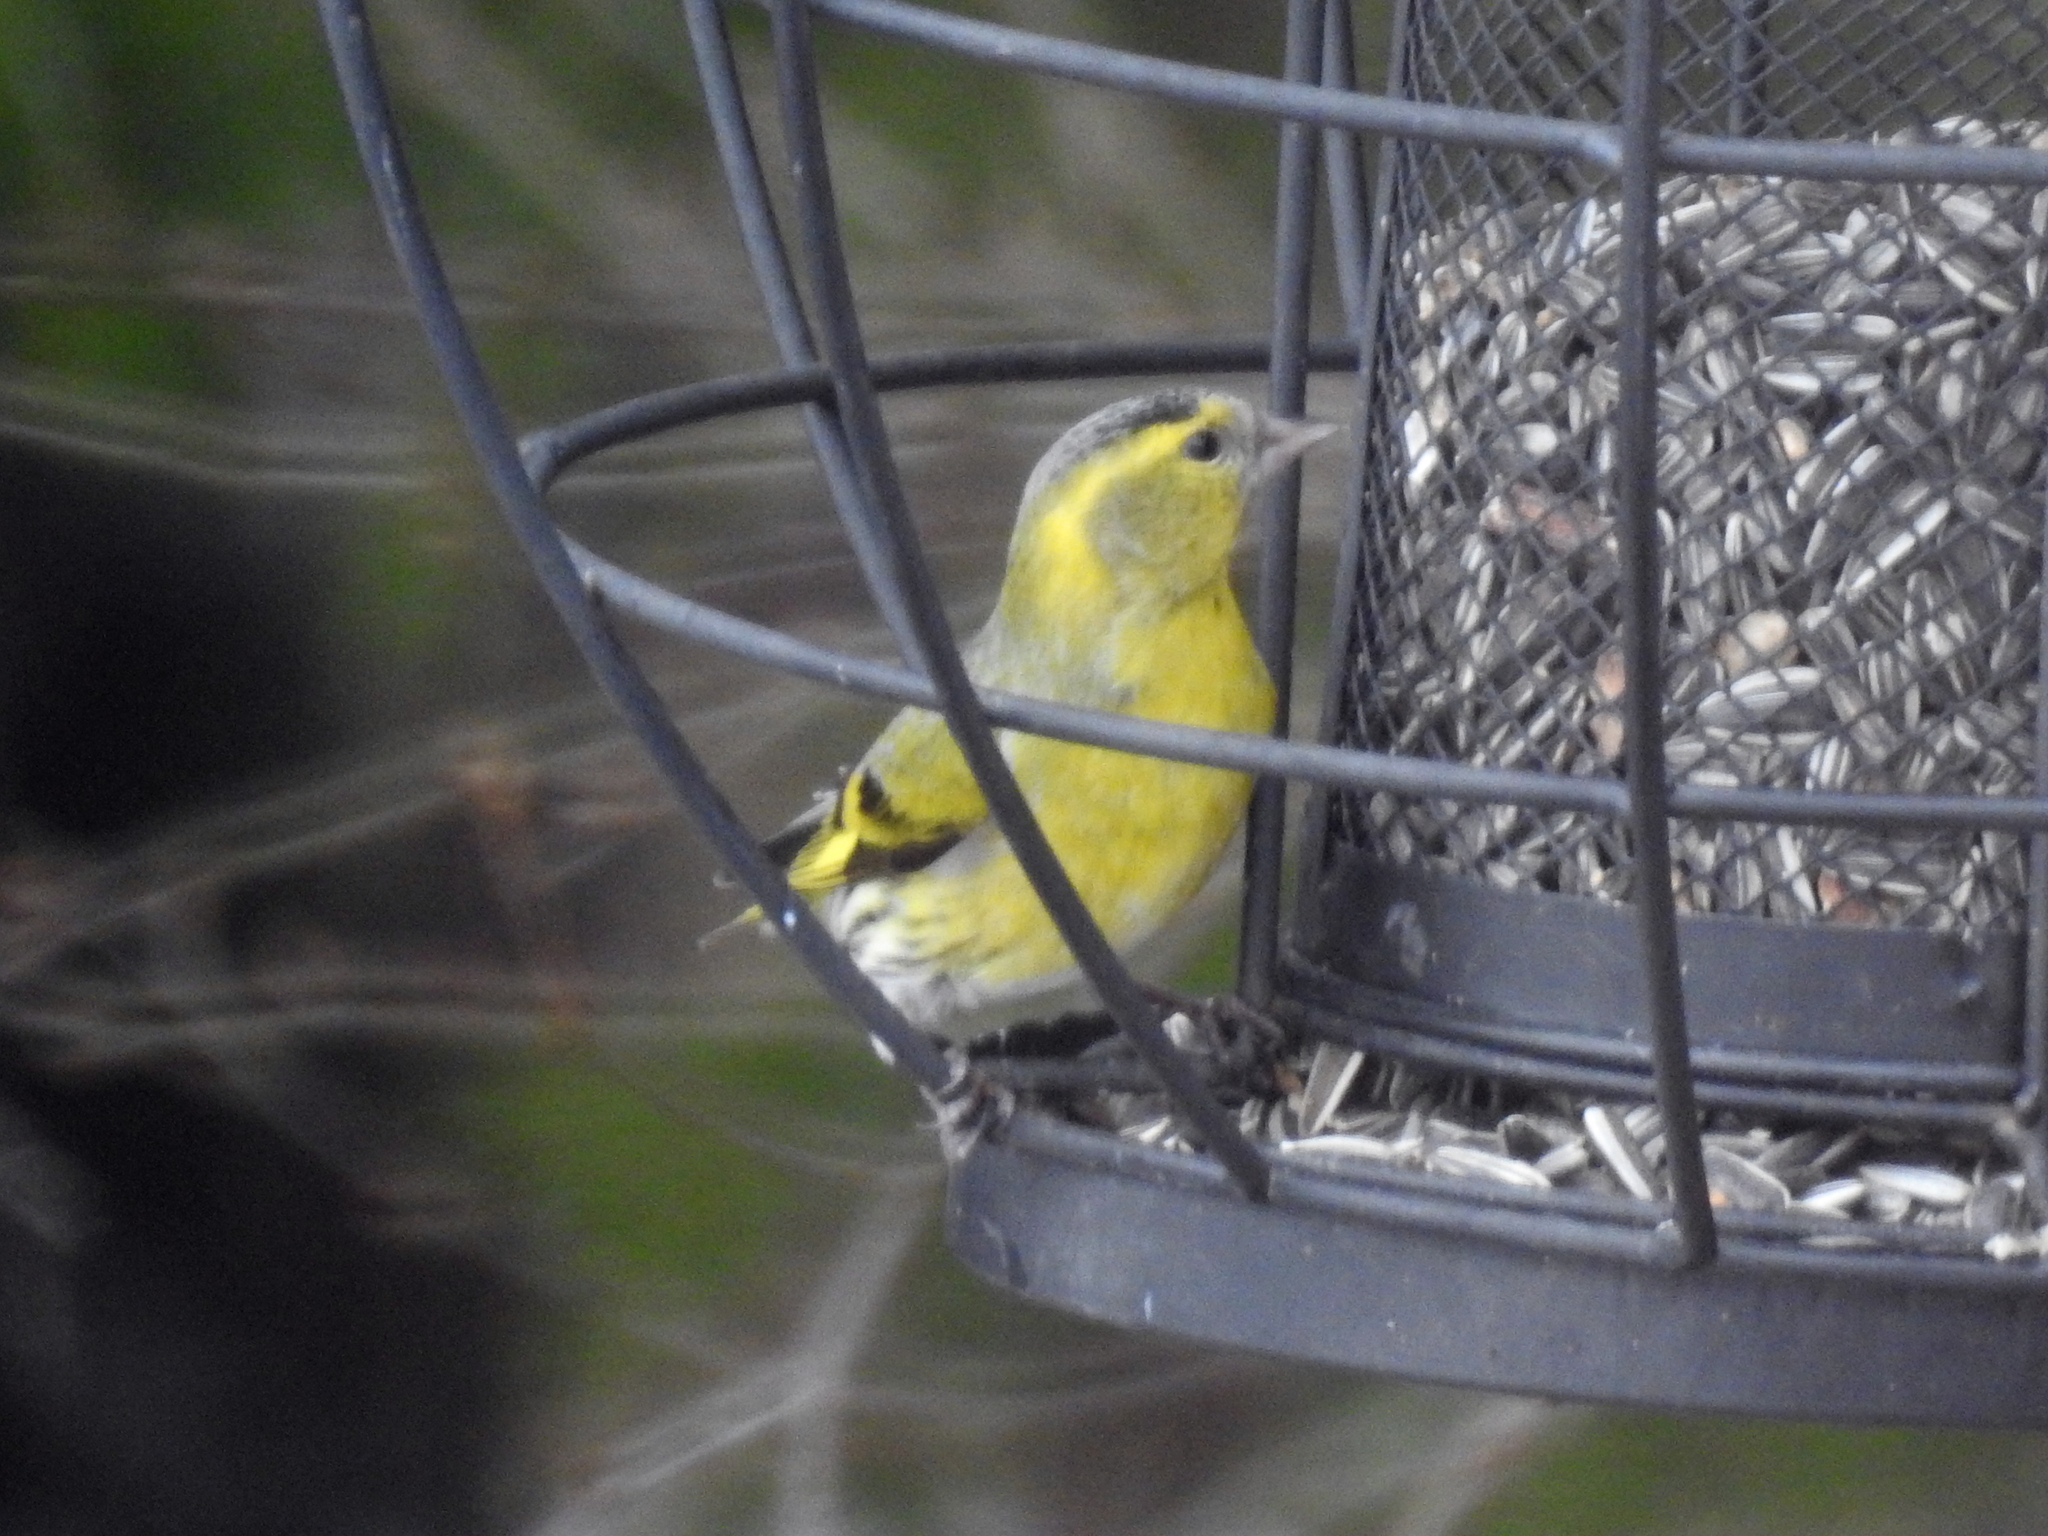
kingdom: Animalia
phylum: Chordata
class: Aves
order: Passeriformes
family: Fringillidae
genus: Spinus
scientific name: Spinus spinus
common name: Eurasian siskin
